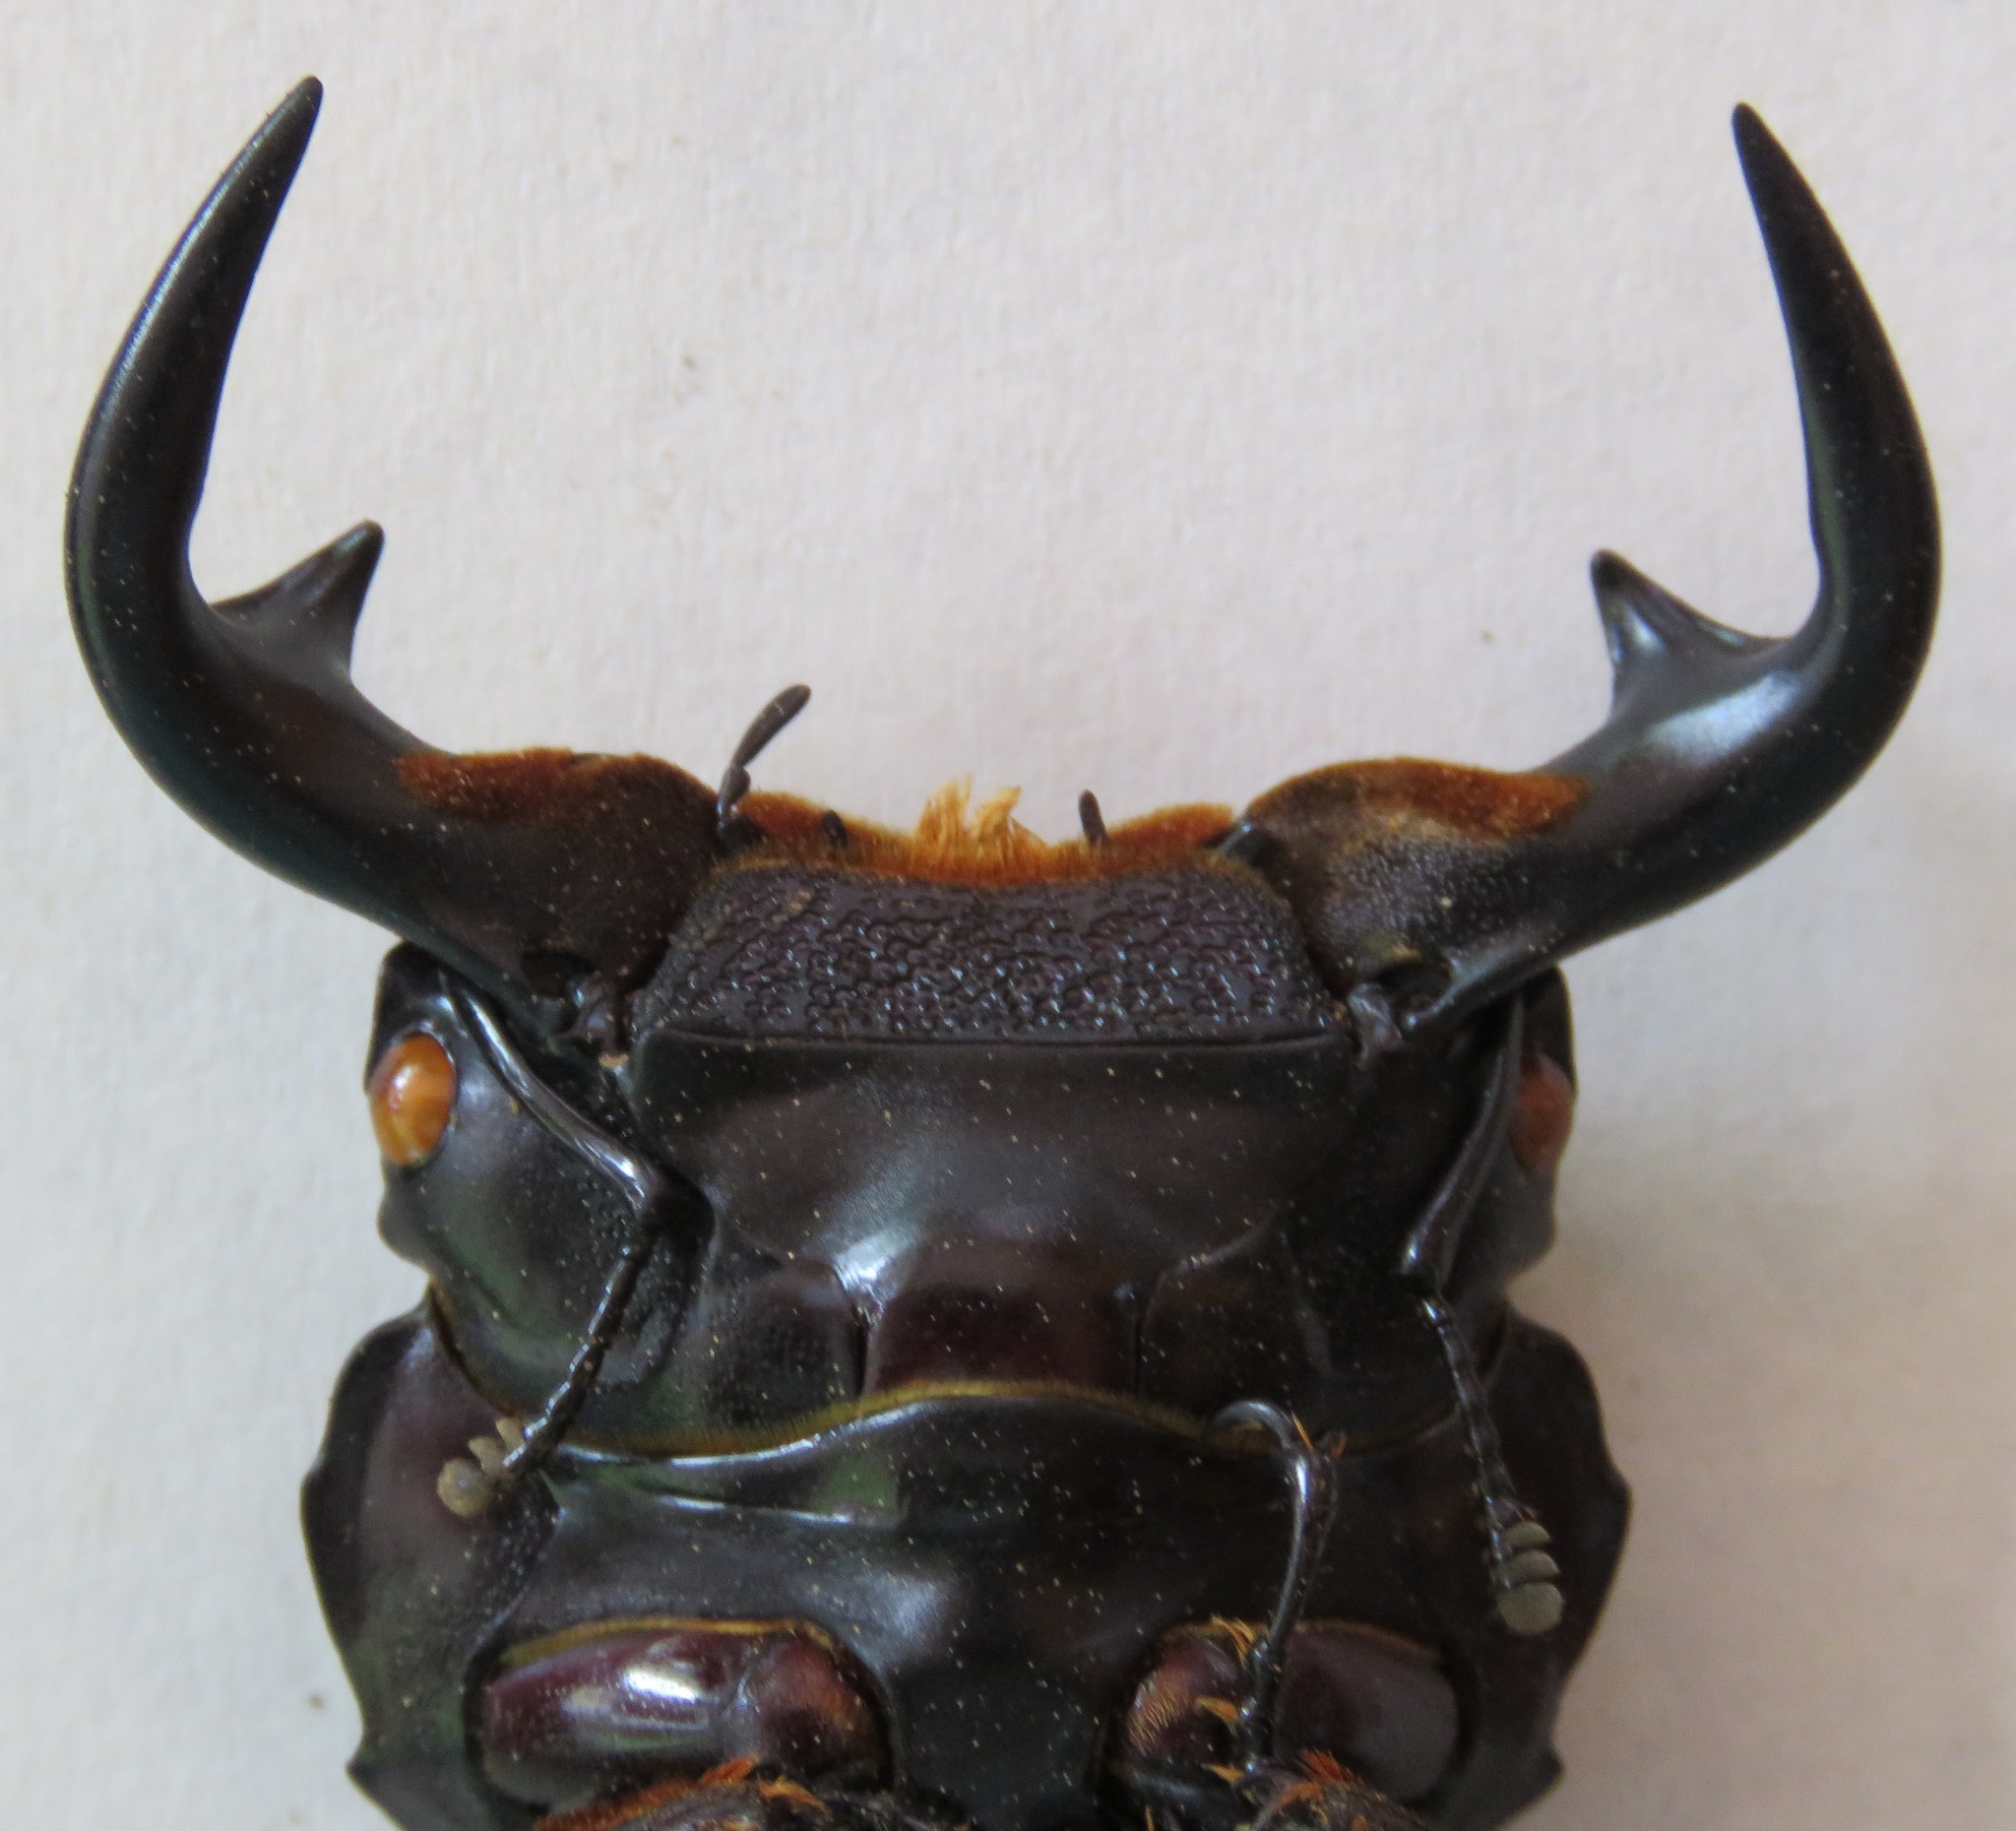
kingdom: Animalia
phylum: Arthropoda
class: Insecta
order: Coleoptera
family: Lucanidae
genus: Dorcus
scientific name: Dorcus antaeus
